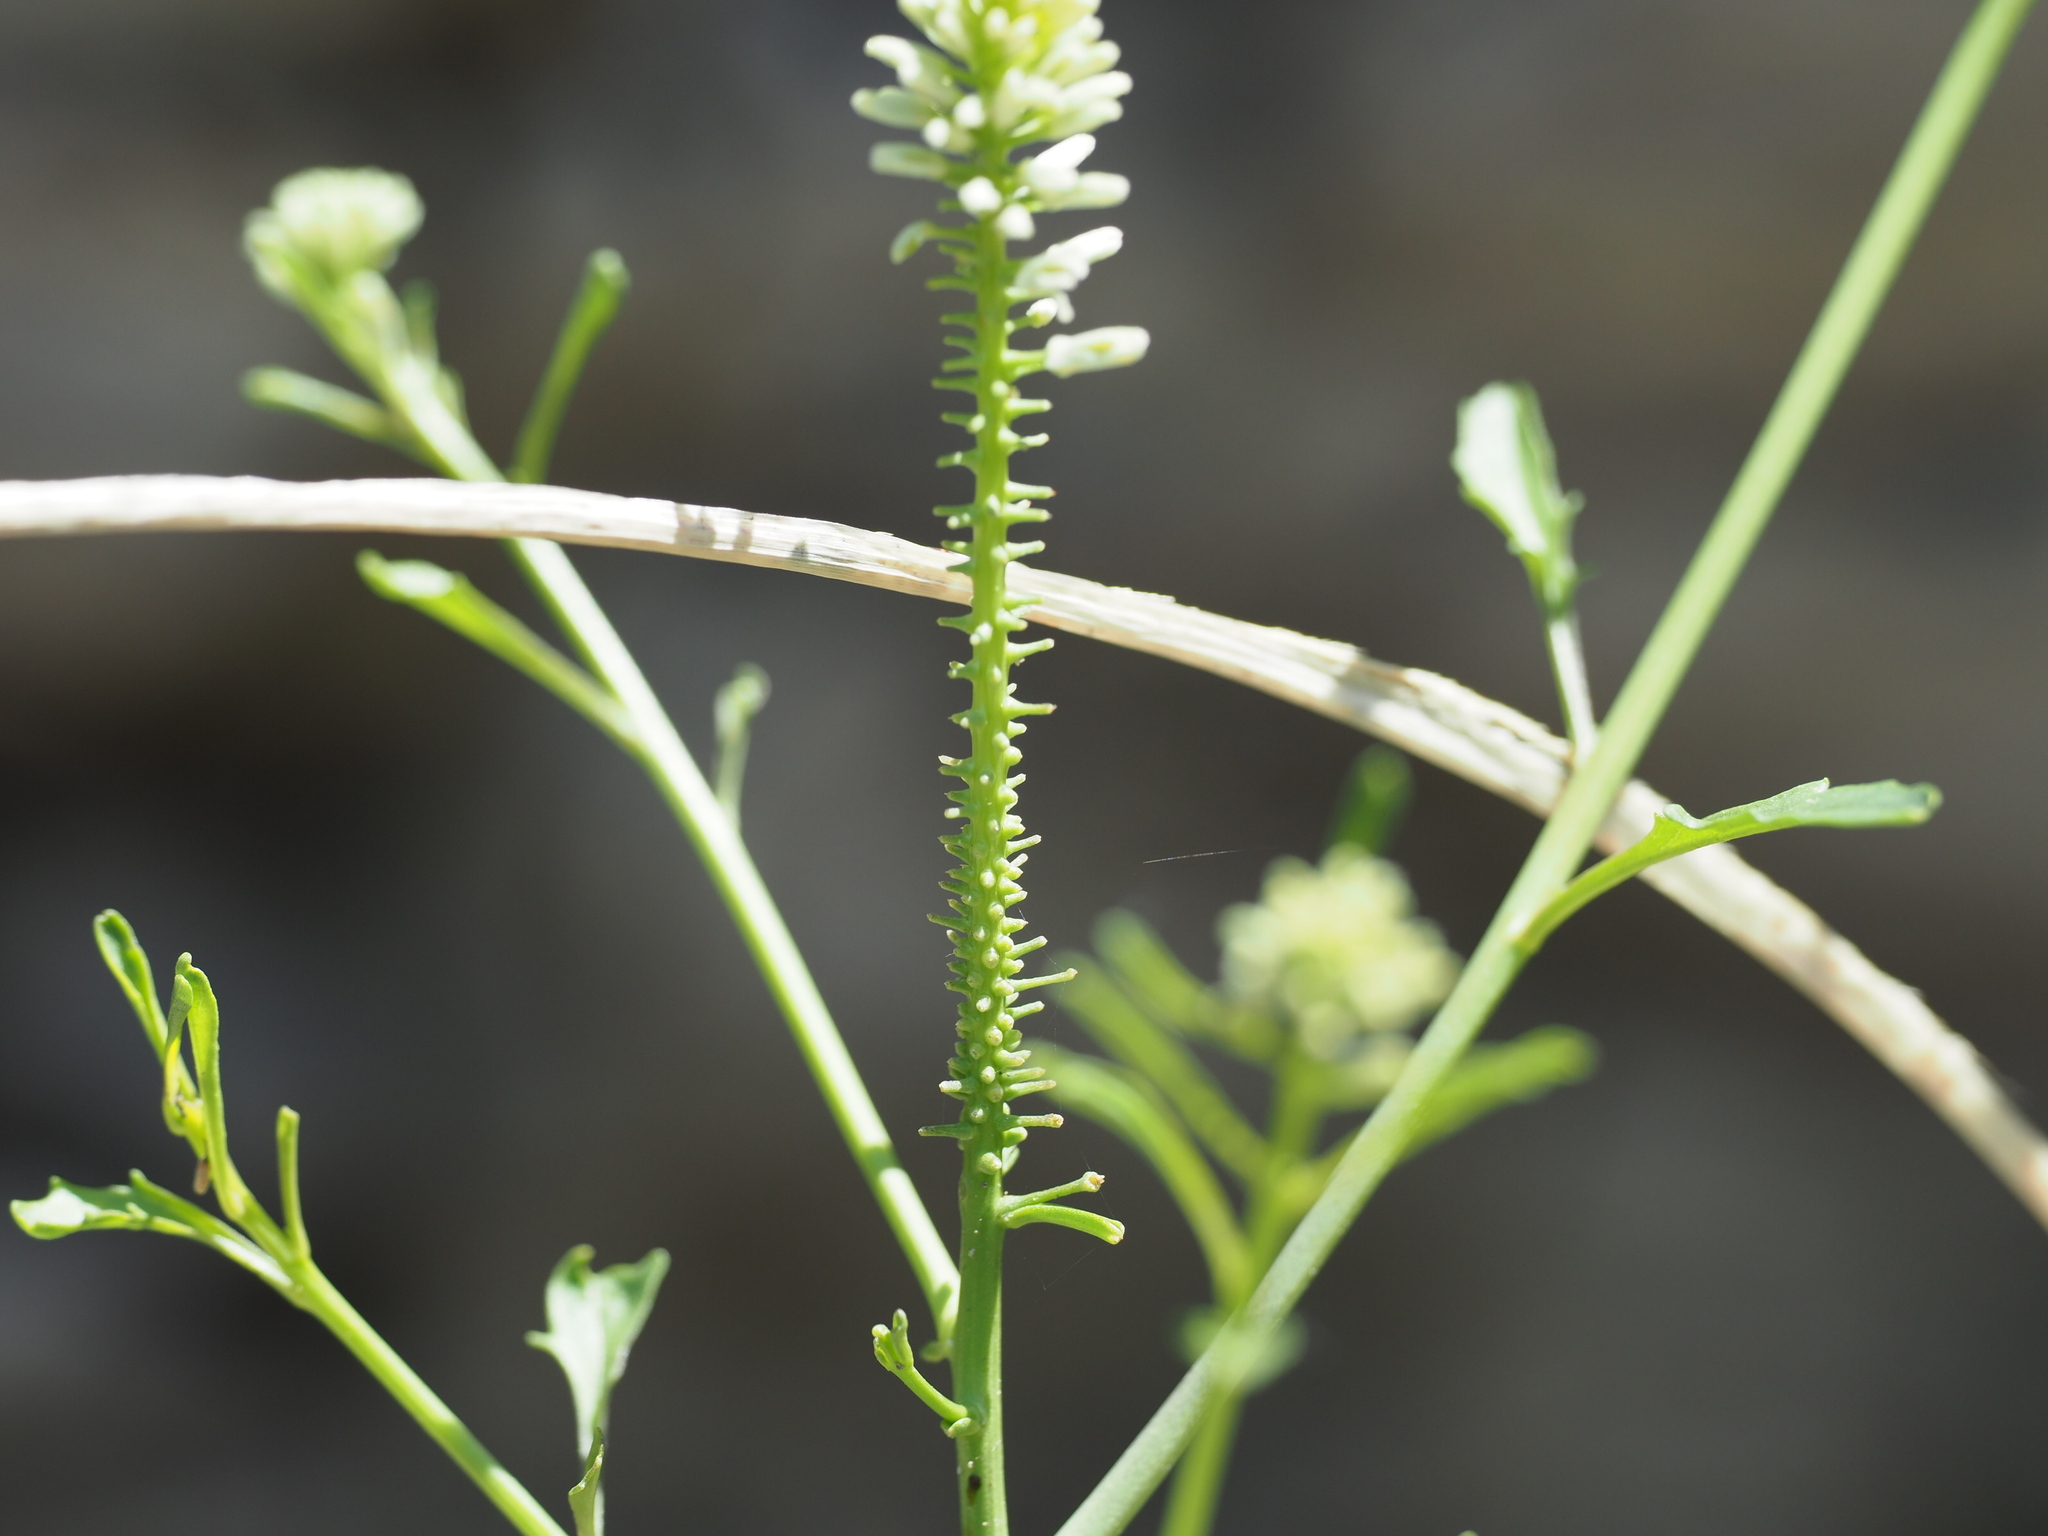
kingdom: Plantae
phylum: Tracheophyta
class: Magnoliopsida
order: Brassicales
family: Brassicaceae
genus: Thelypodium
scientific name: Thelypodium laciniatum
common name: Cut-leaved thelypody
